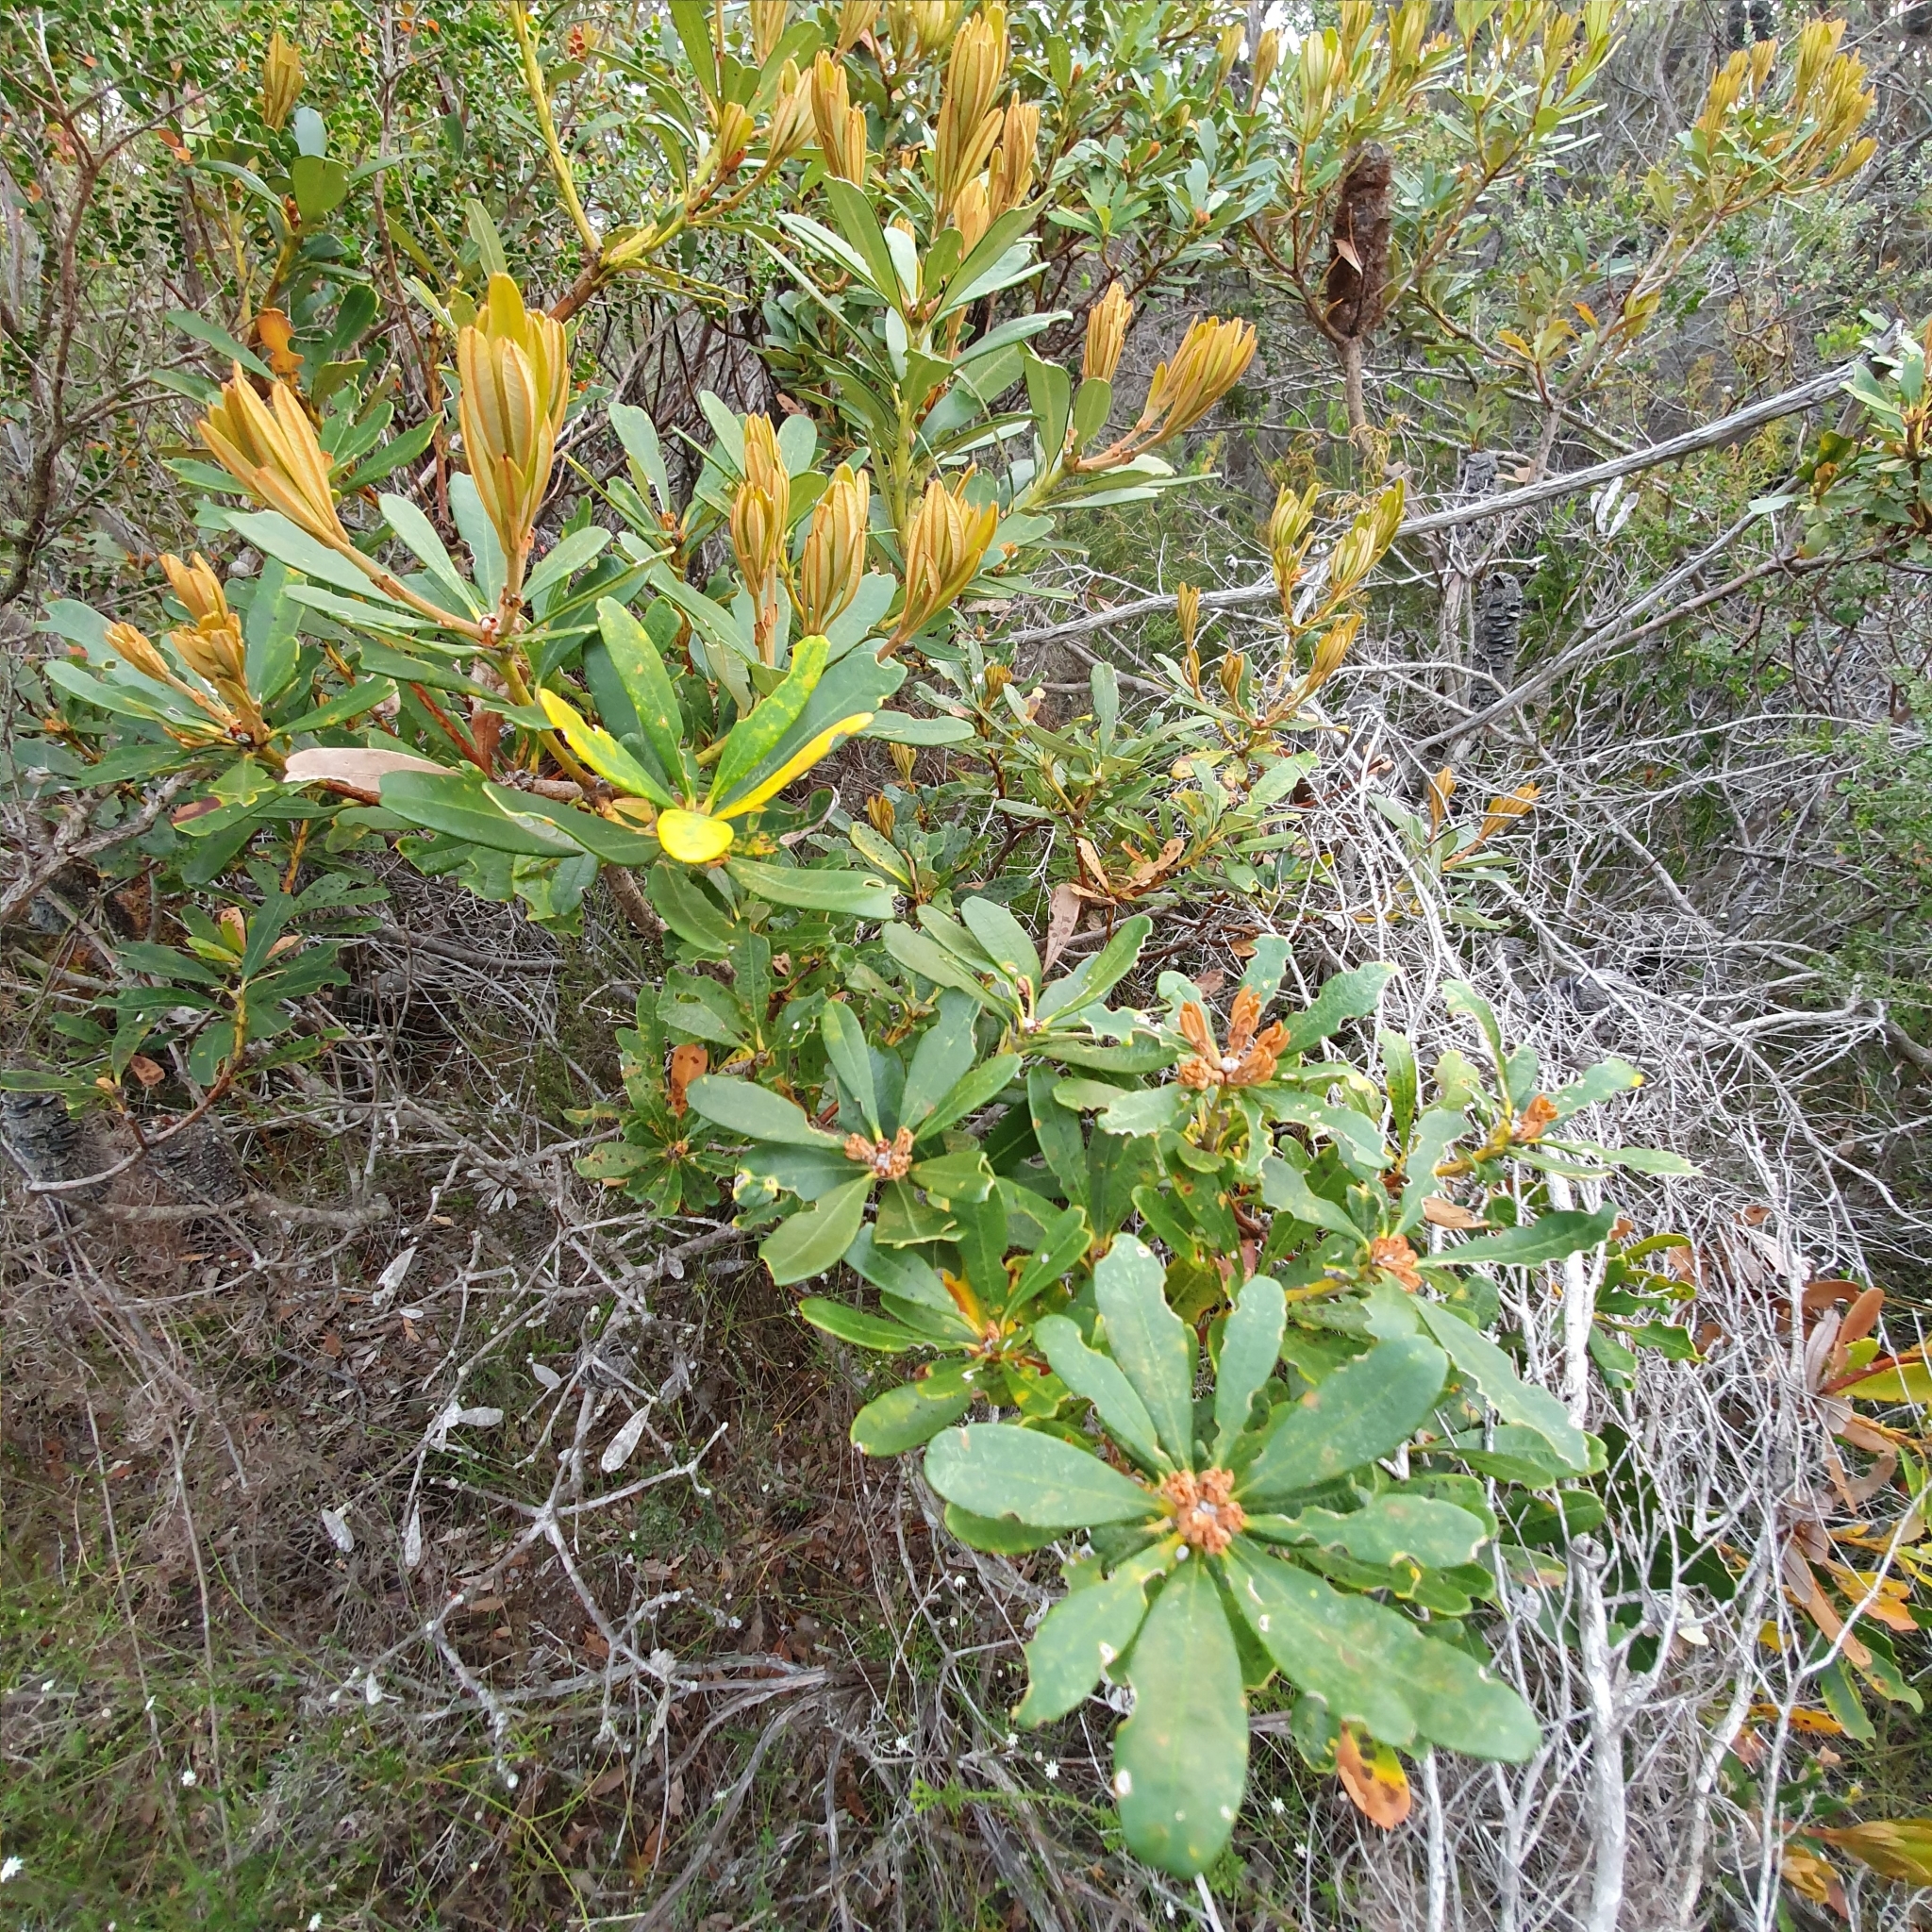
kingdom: Plantae
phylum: Tracheophyta
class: Magnoliopsida
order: Proteales
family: Proteaceae
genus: Banksia
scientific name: Banksia paludosa
